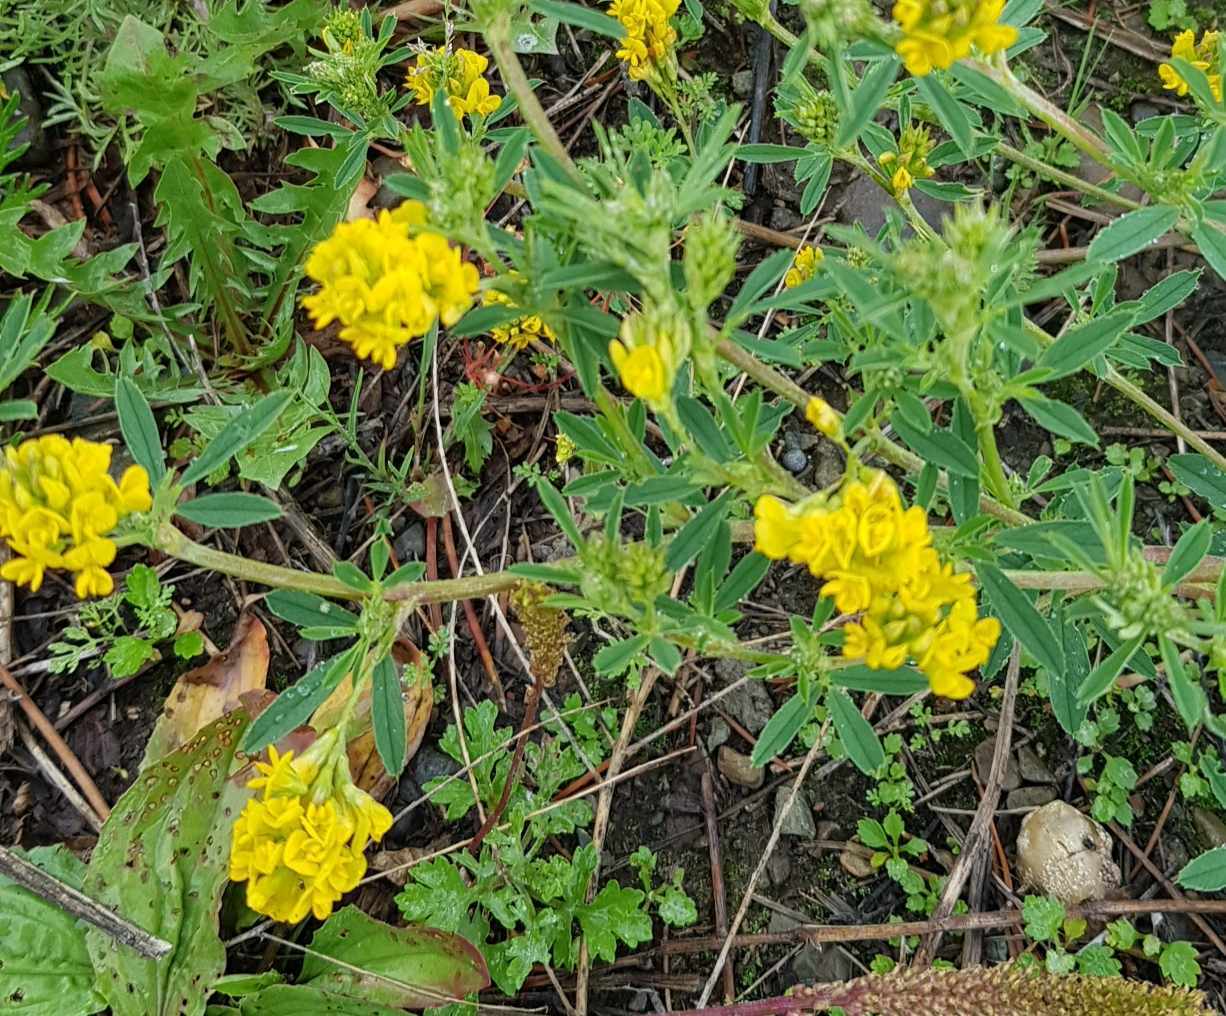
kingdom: Plantae
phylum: Tracheophyta
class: Magnoliopsida
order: Fabales
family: Fabaceae
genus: Medicago
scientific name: Medicago falcata
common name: Sickle medick
